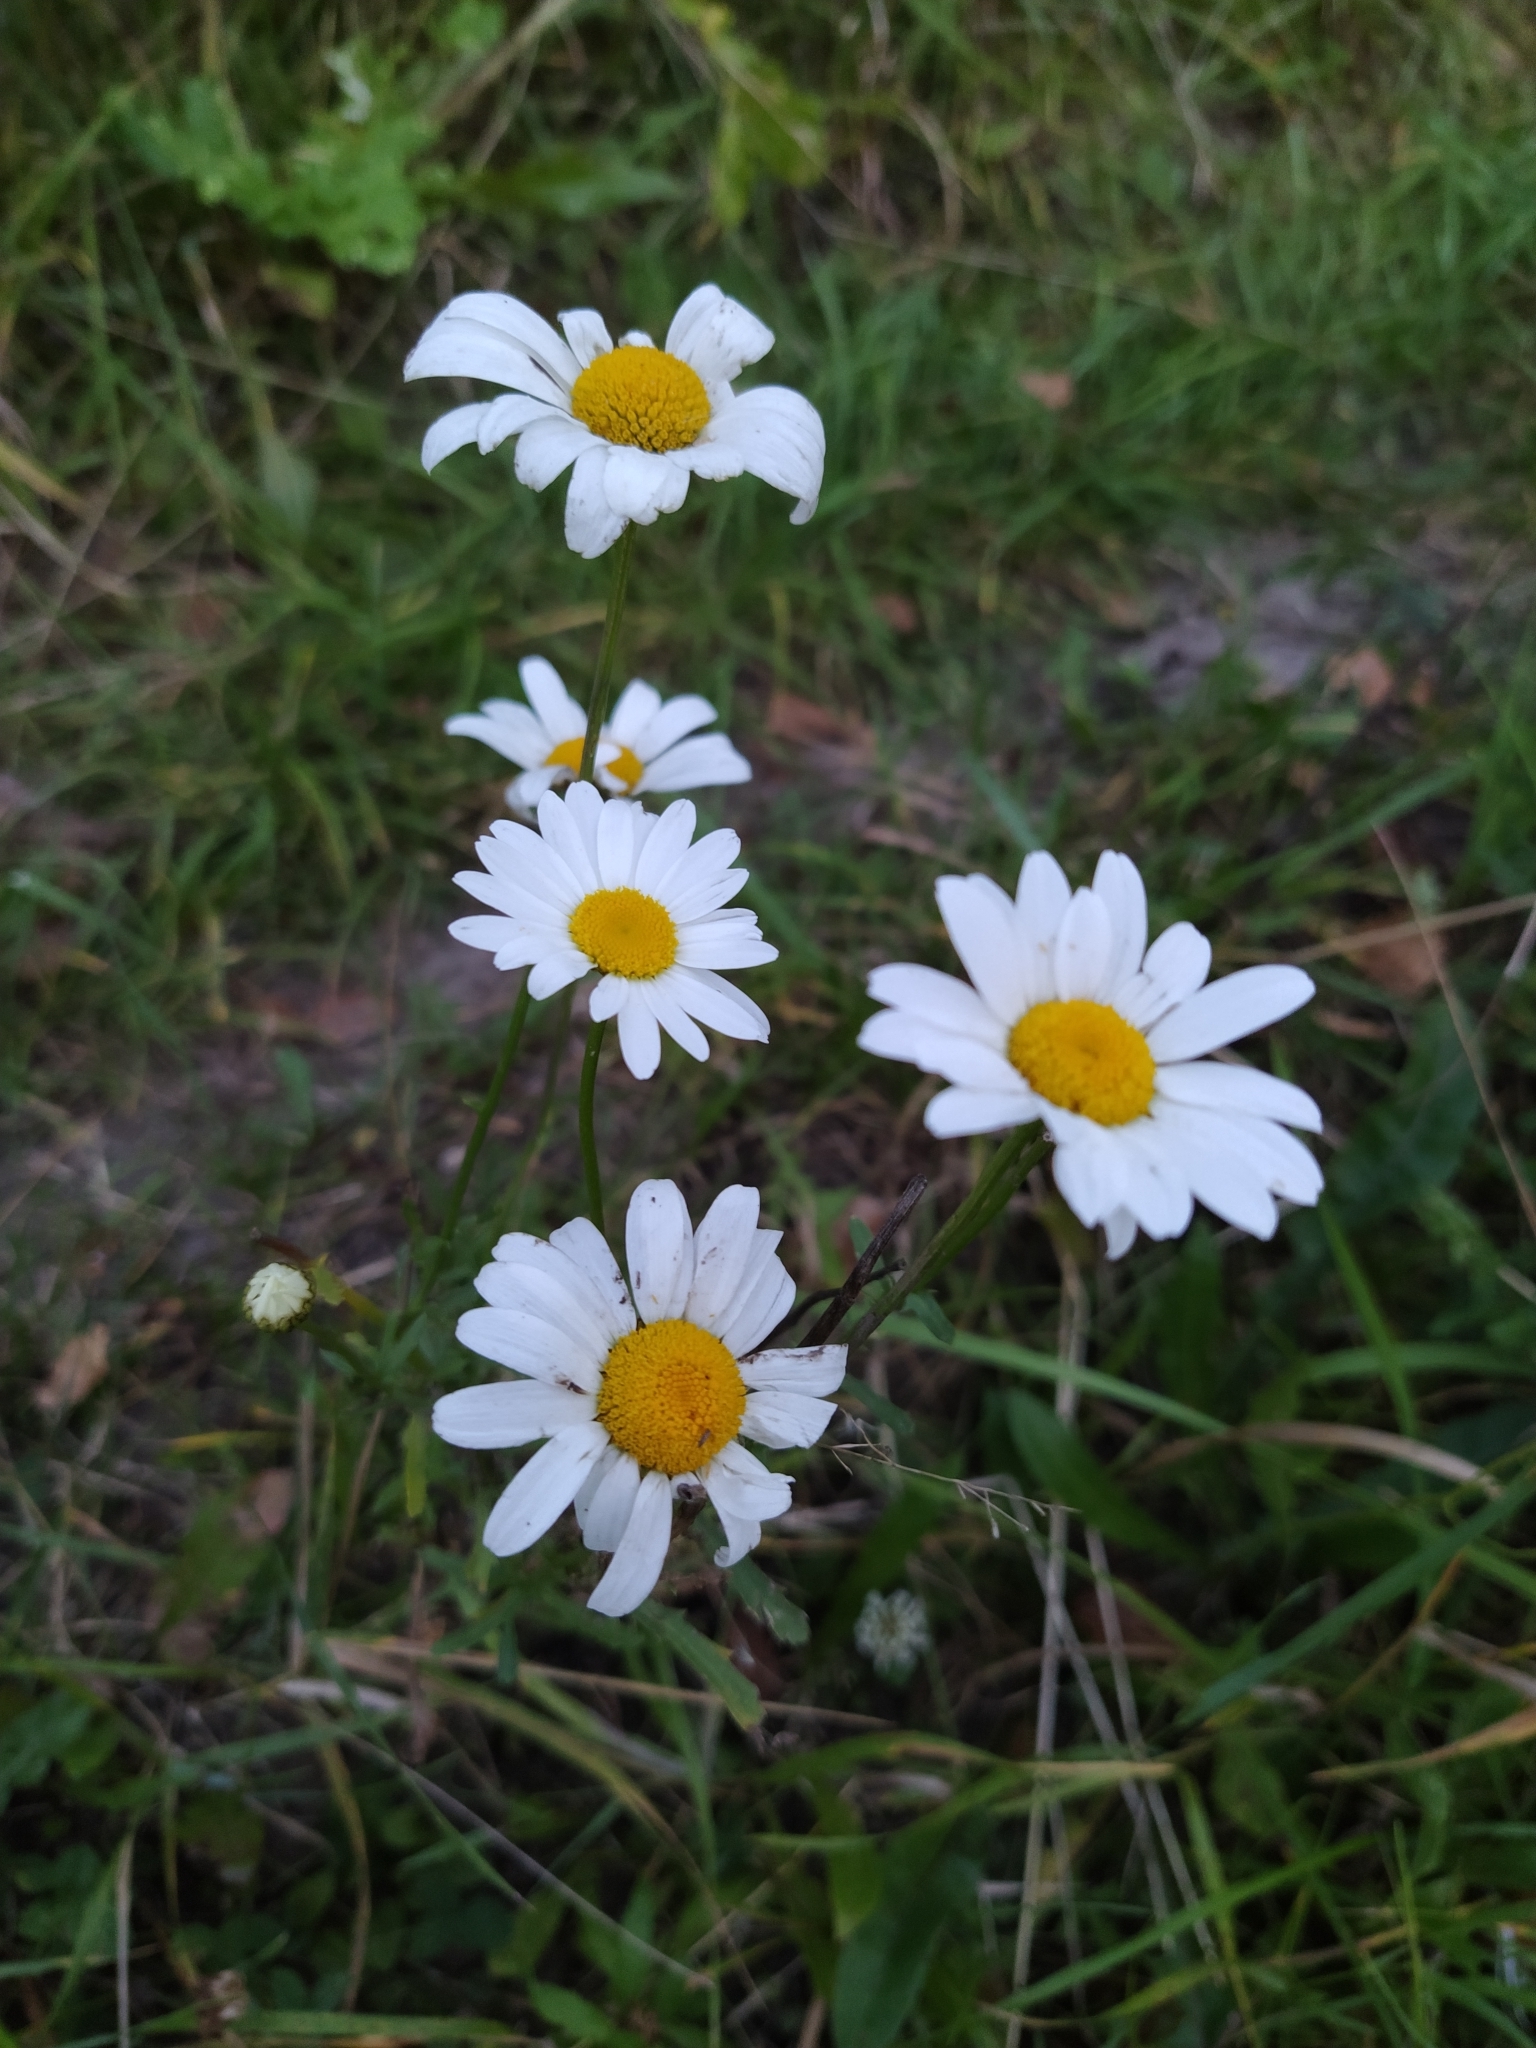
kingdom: Plantae
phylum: Tracheophyta
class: Magnoliopsida
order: Asterales
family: Asteraceae
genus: Leucanthemum
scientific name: Leucanthemum vulgare
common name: Oxeye daisy
